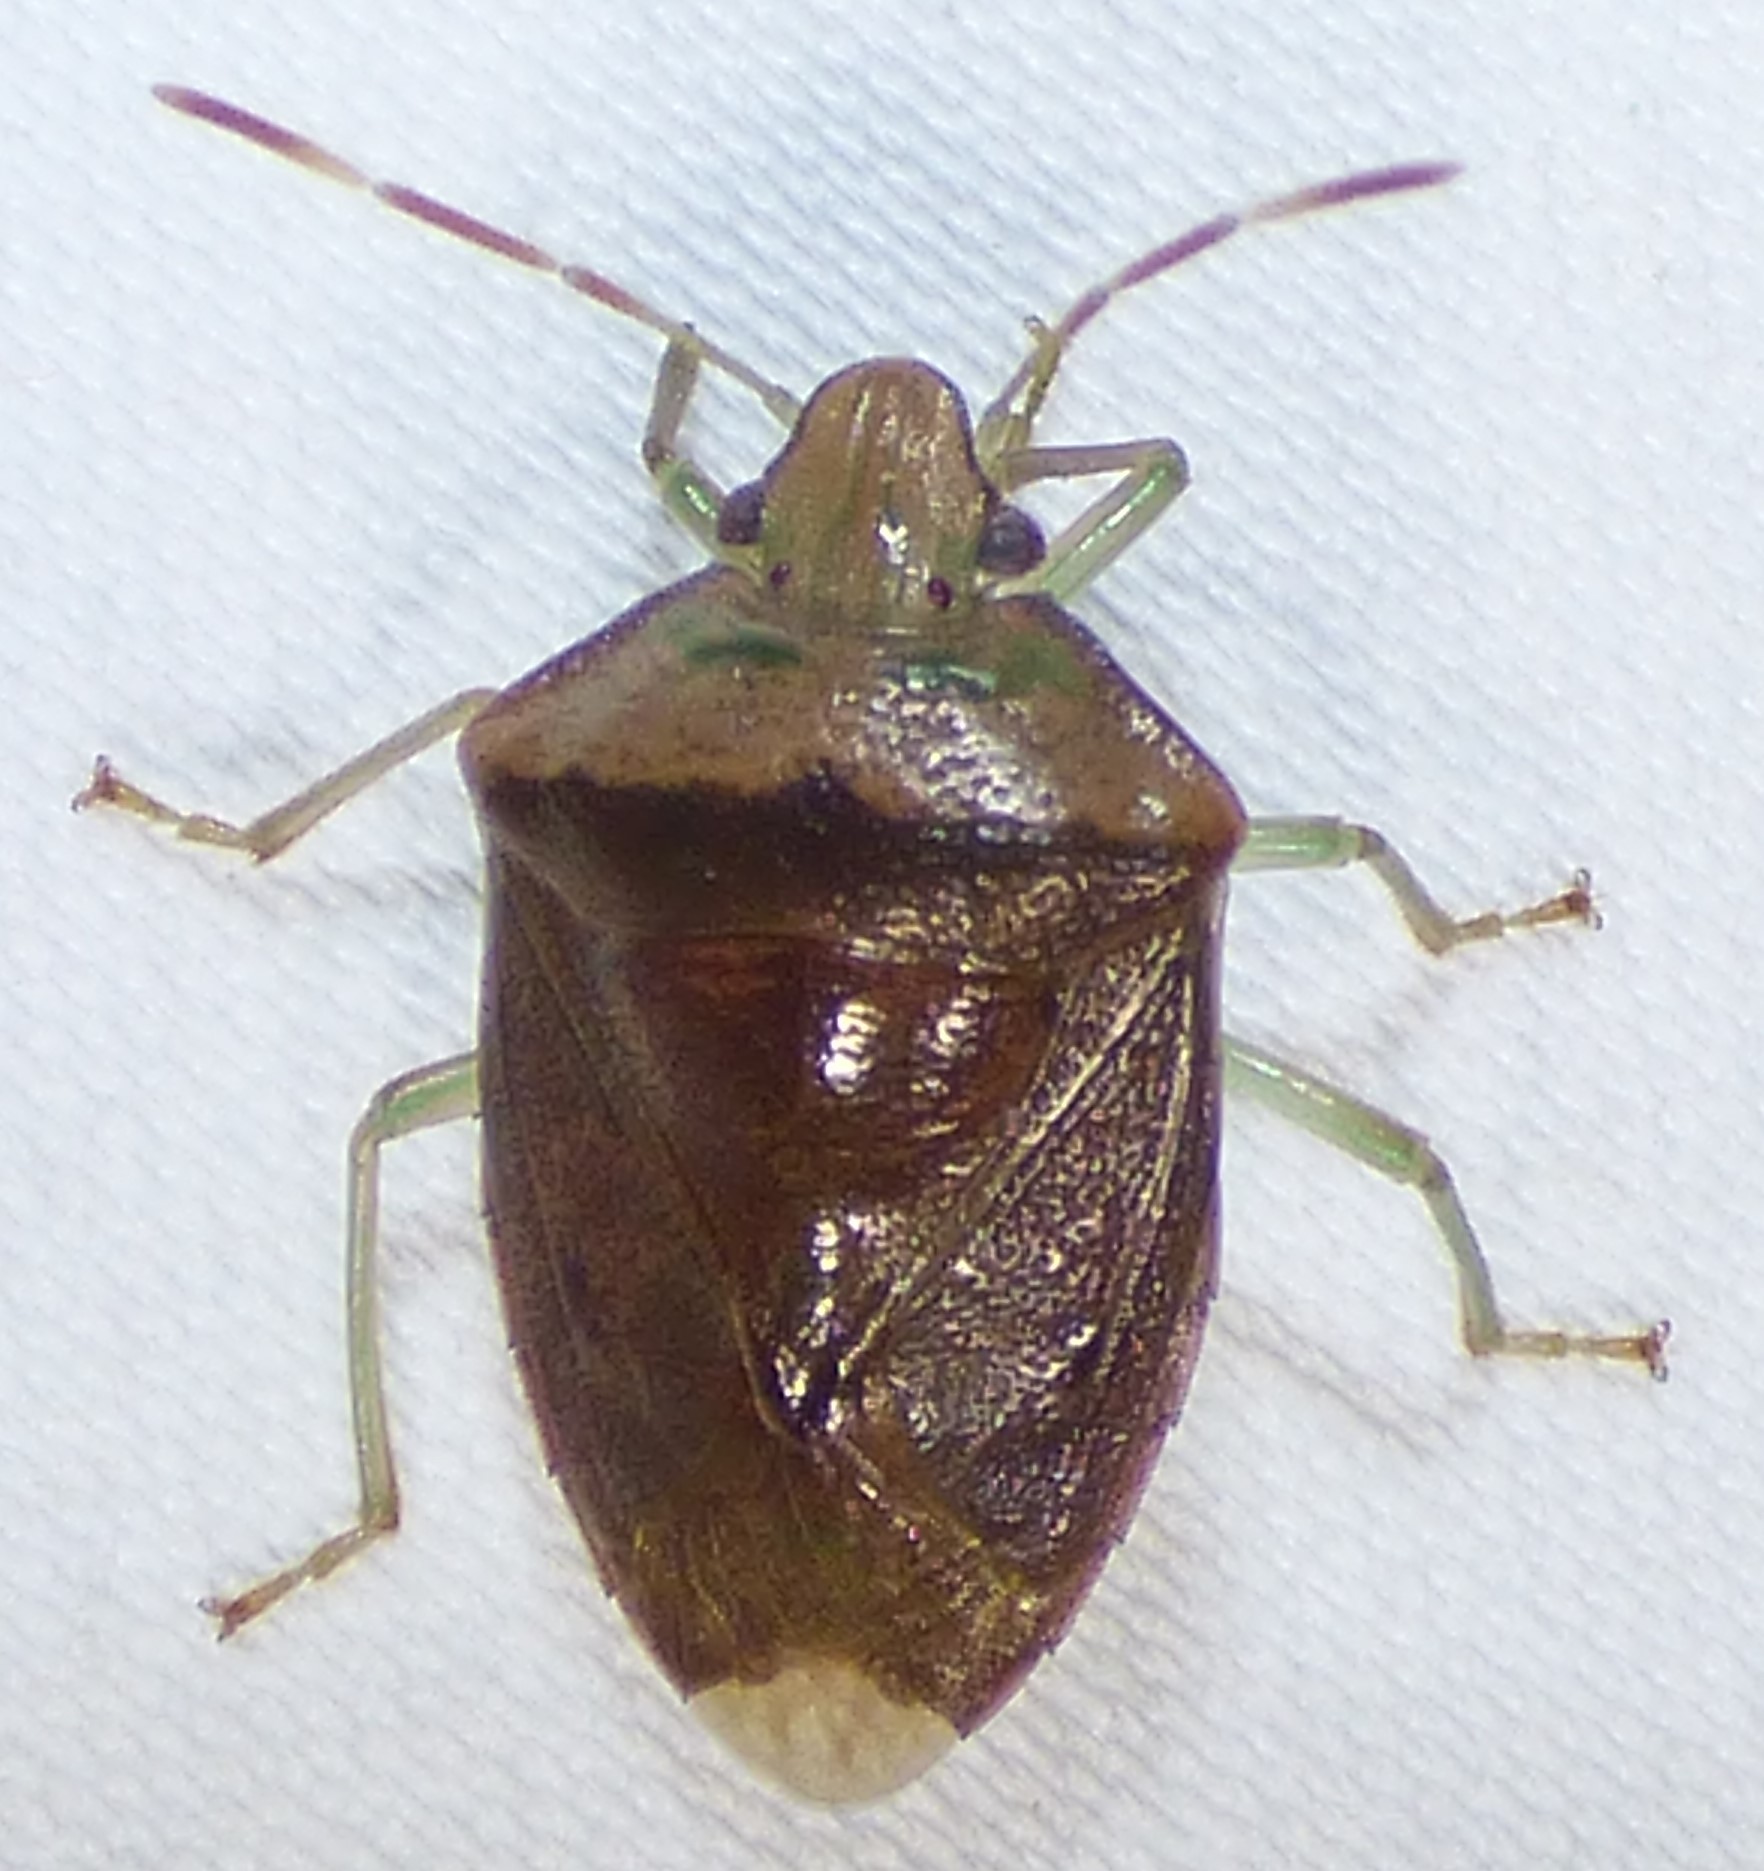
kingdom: Animalia
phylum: Arthropoda
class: Insecta
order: Hemiptera
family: Pentatomidae
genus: Banasa
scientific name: Banasa calva
